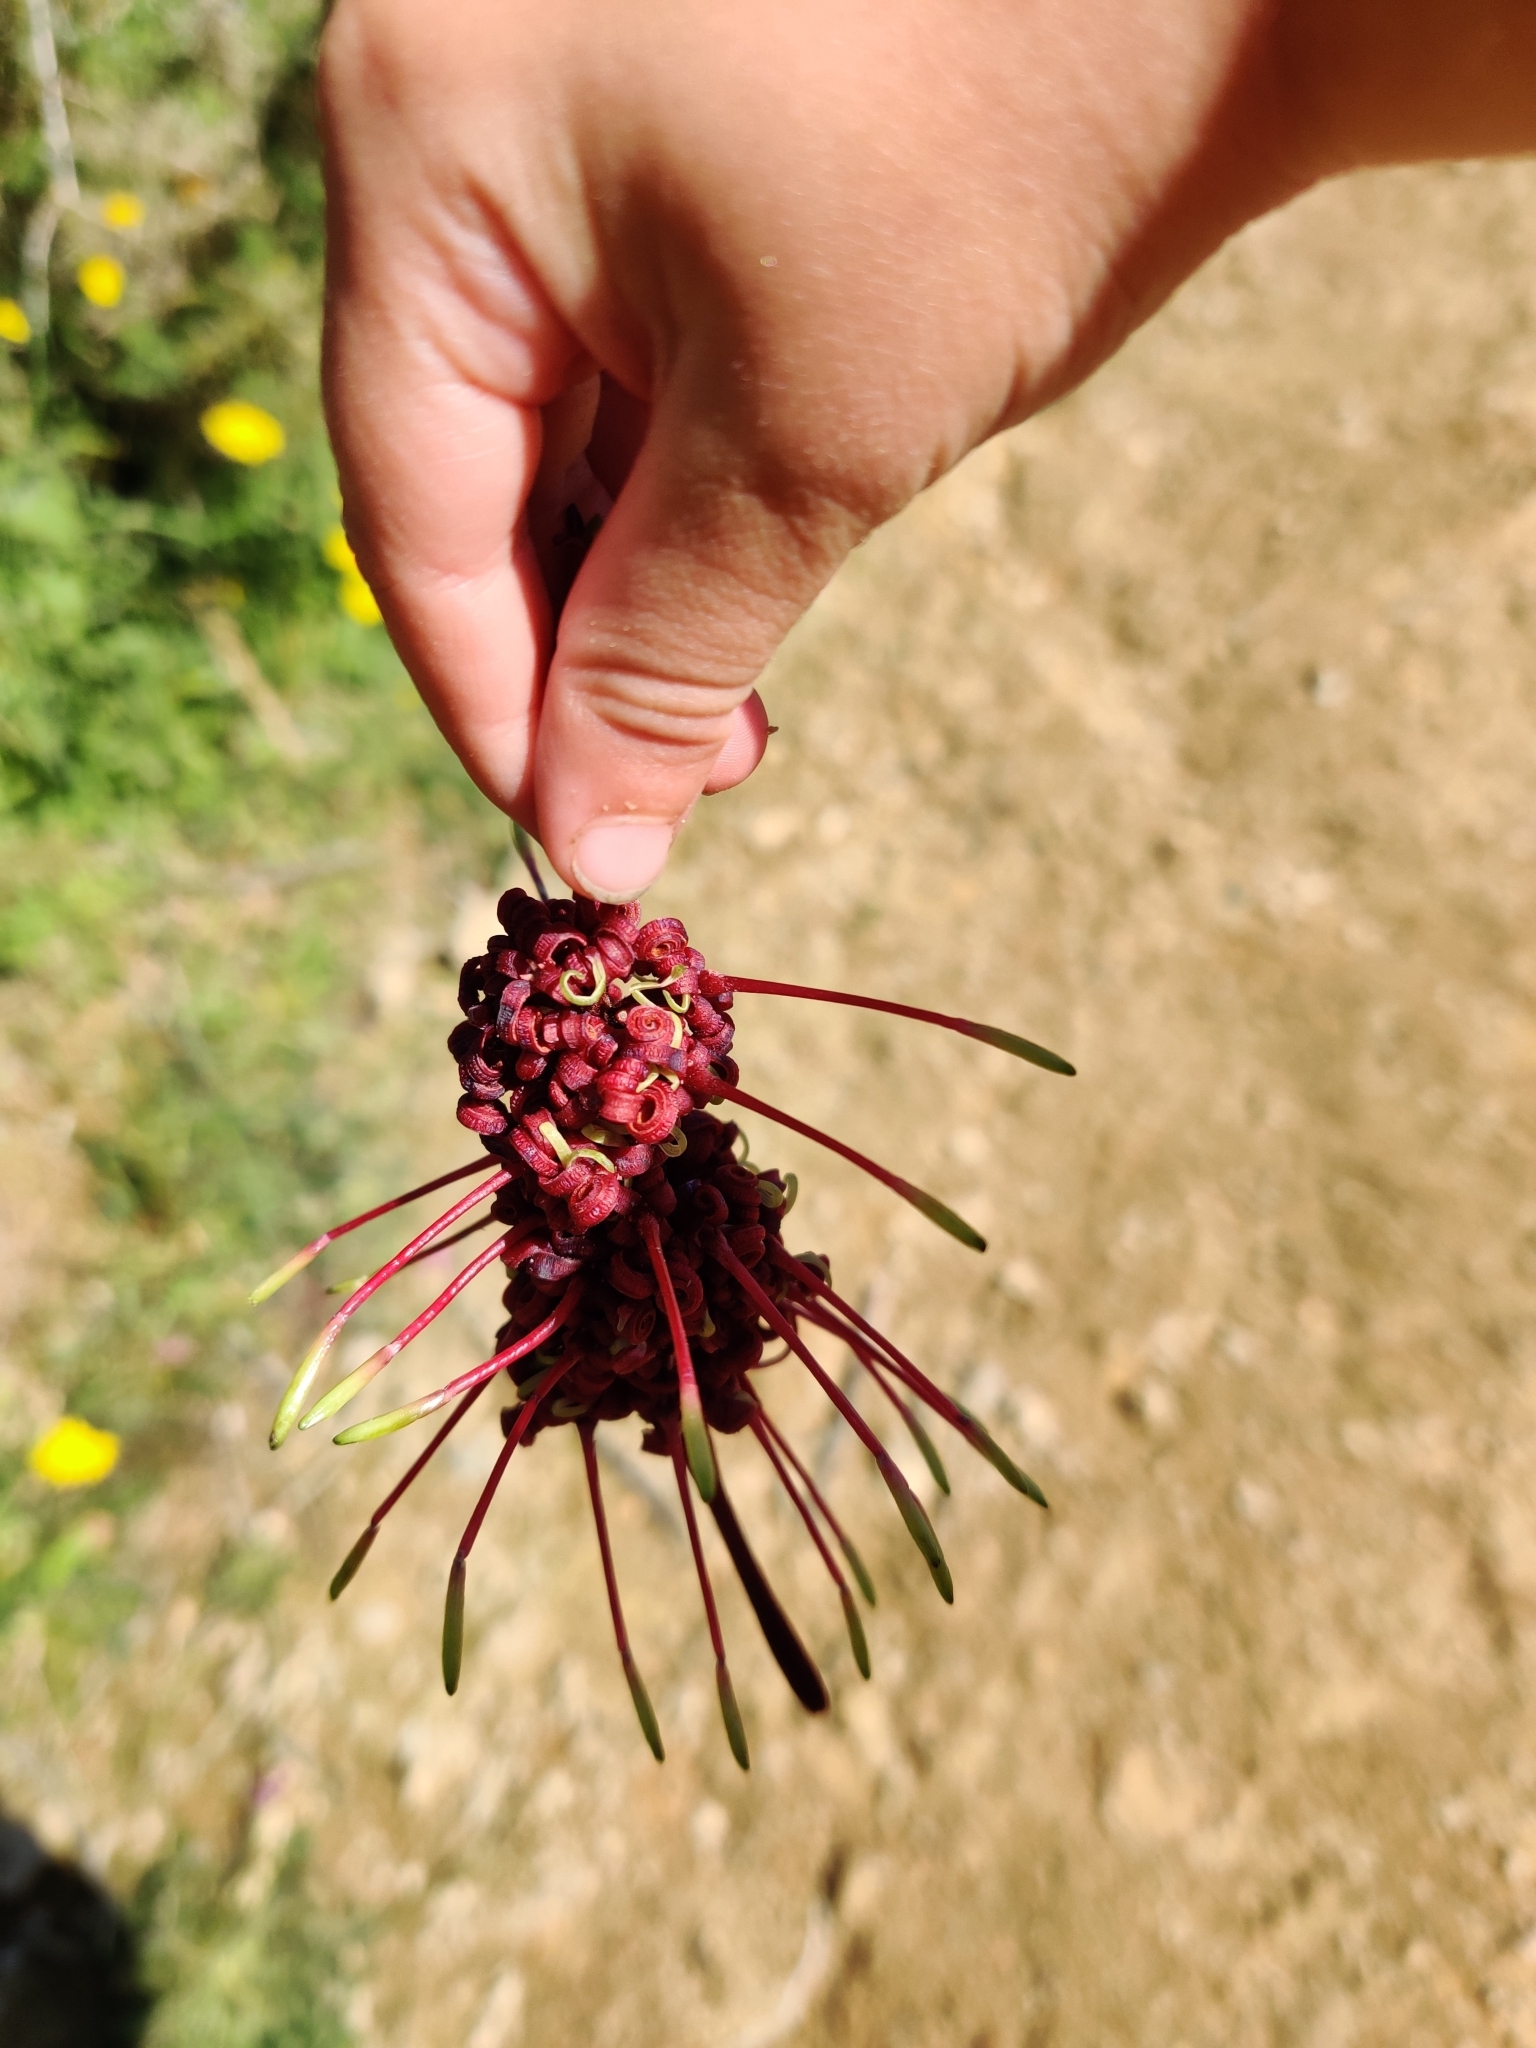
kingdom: Plantae
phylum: Tracheophyta
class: Magnoliopsida
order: Proteales
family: Proteaceae
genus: Knightia
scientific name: Knightia excelsa
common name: New zealand-honeysuckle
